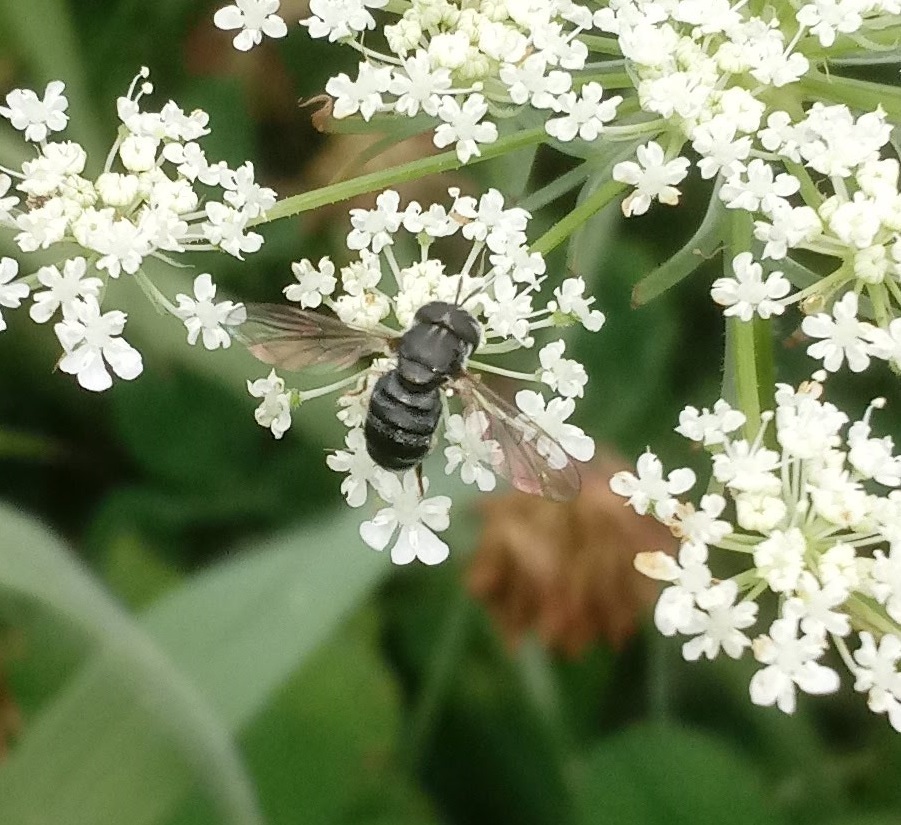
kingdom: Animalia
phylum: Arthropoda
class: Insecta
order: Diptera
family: Syrphidae
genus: Paragus
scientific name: Paragus
